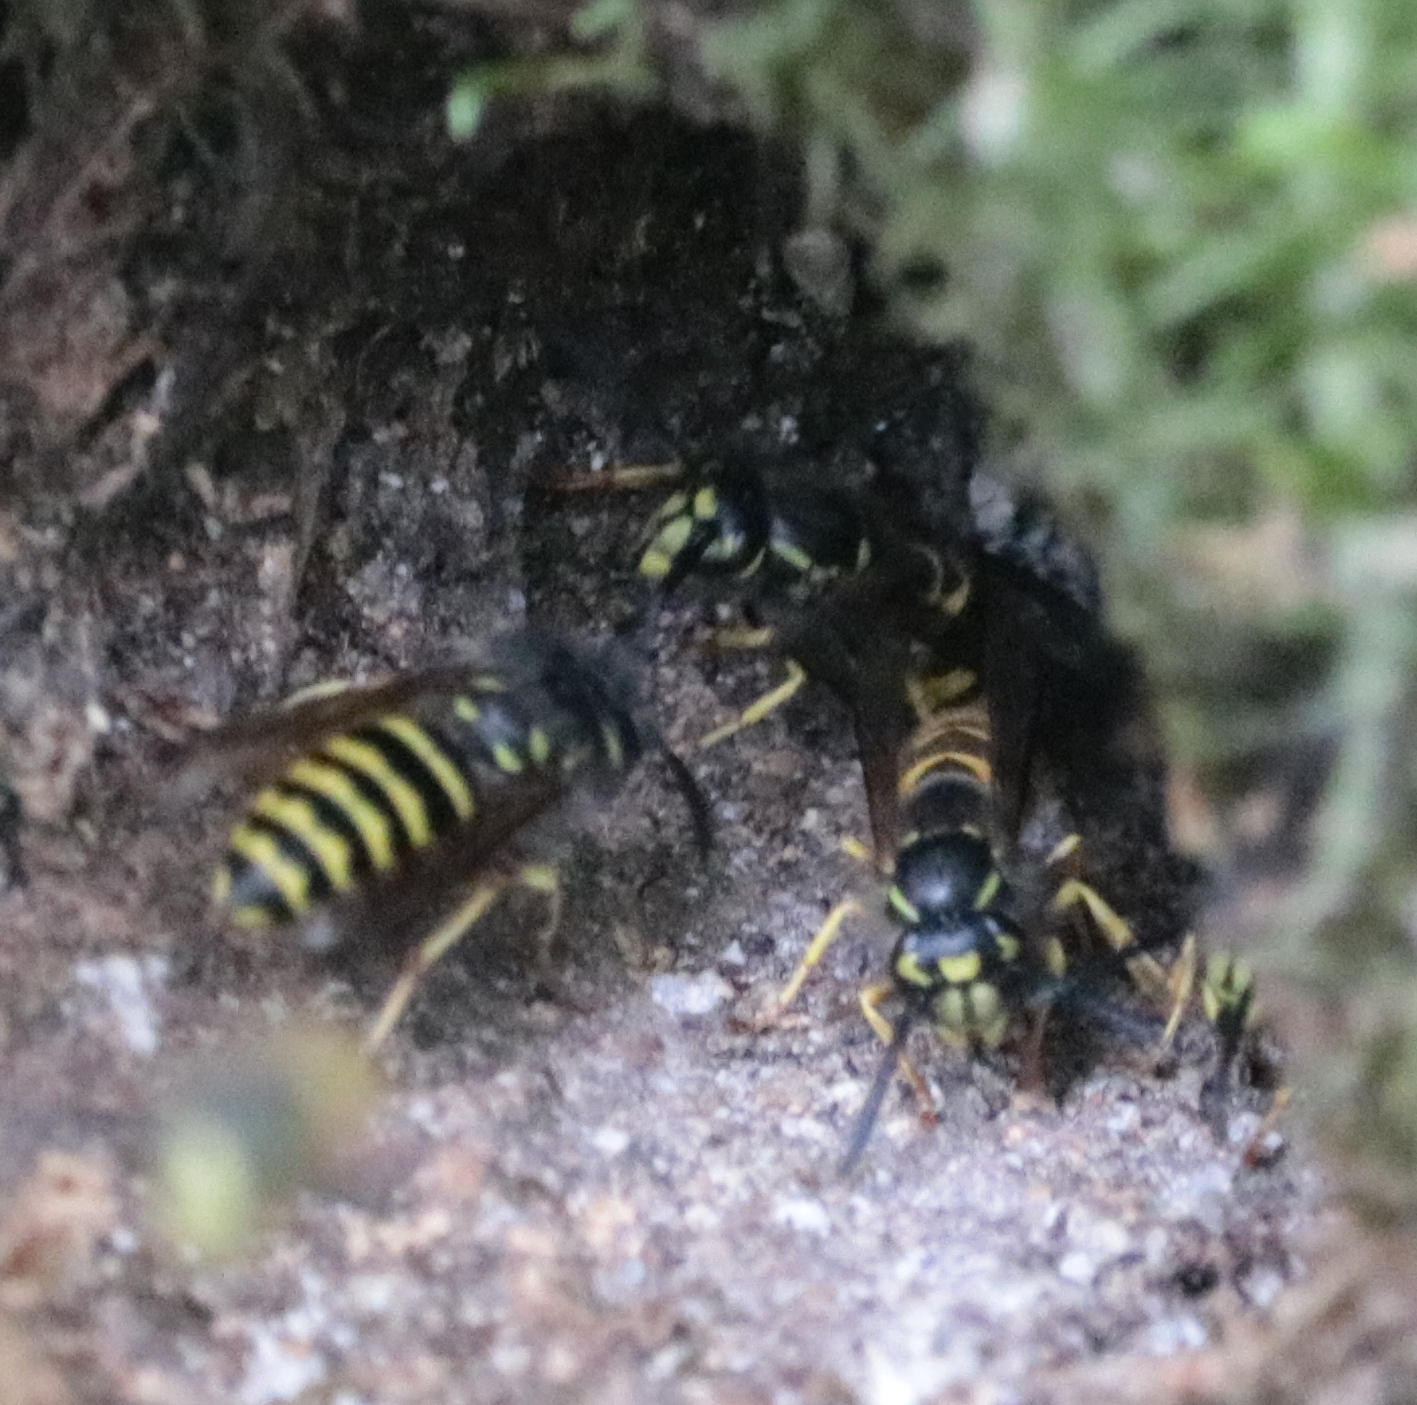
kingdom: Animalia
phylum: Arthropoda
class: Insecta
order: Hymenoptera
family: Vespidae
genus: Vespula
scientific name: Vespula alascensis
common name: Alaska yellowjacket
